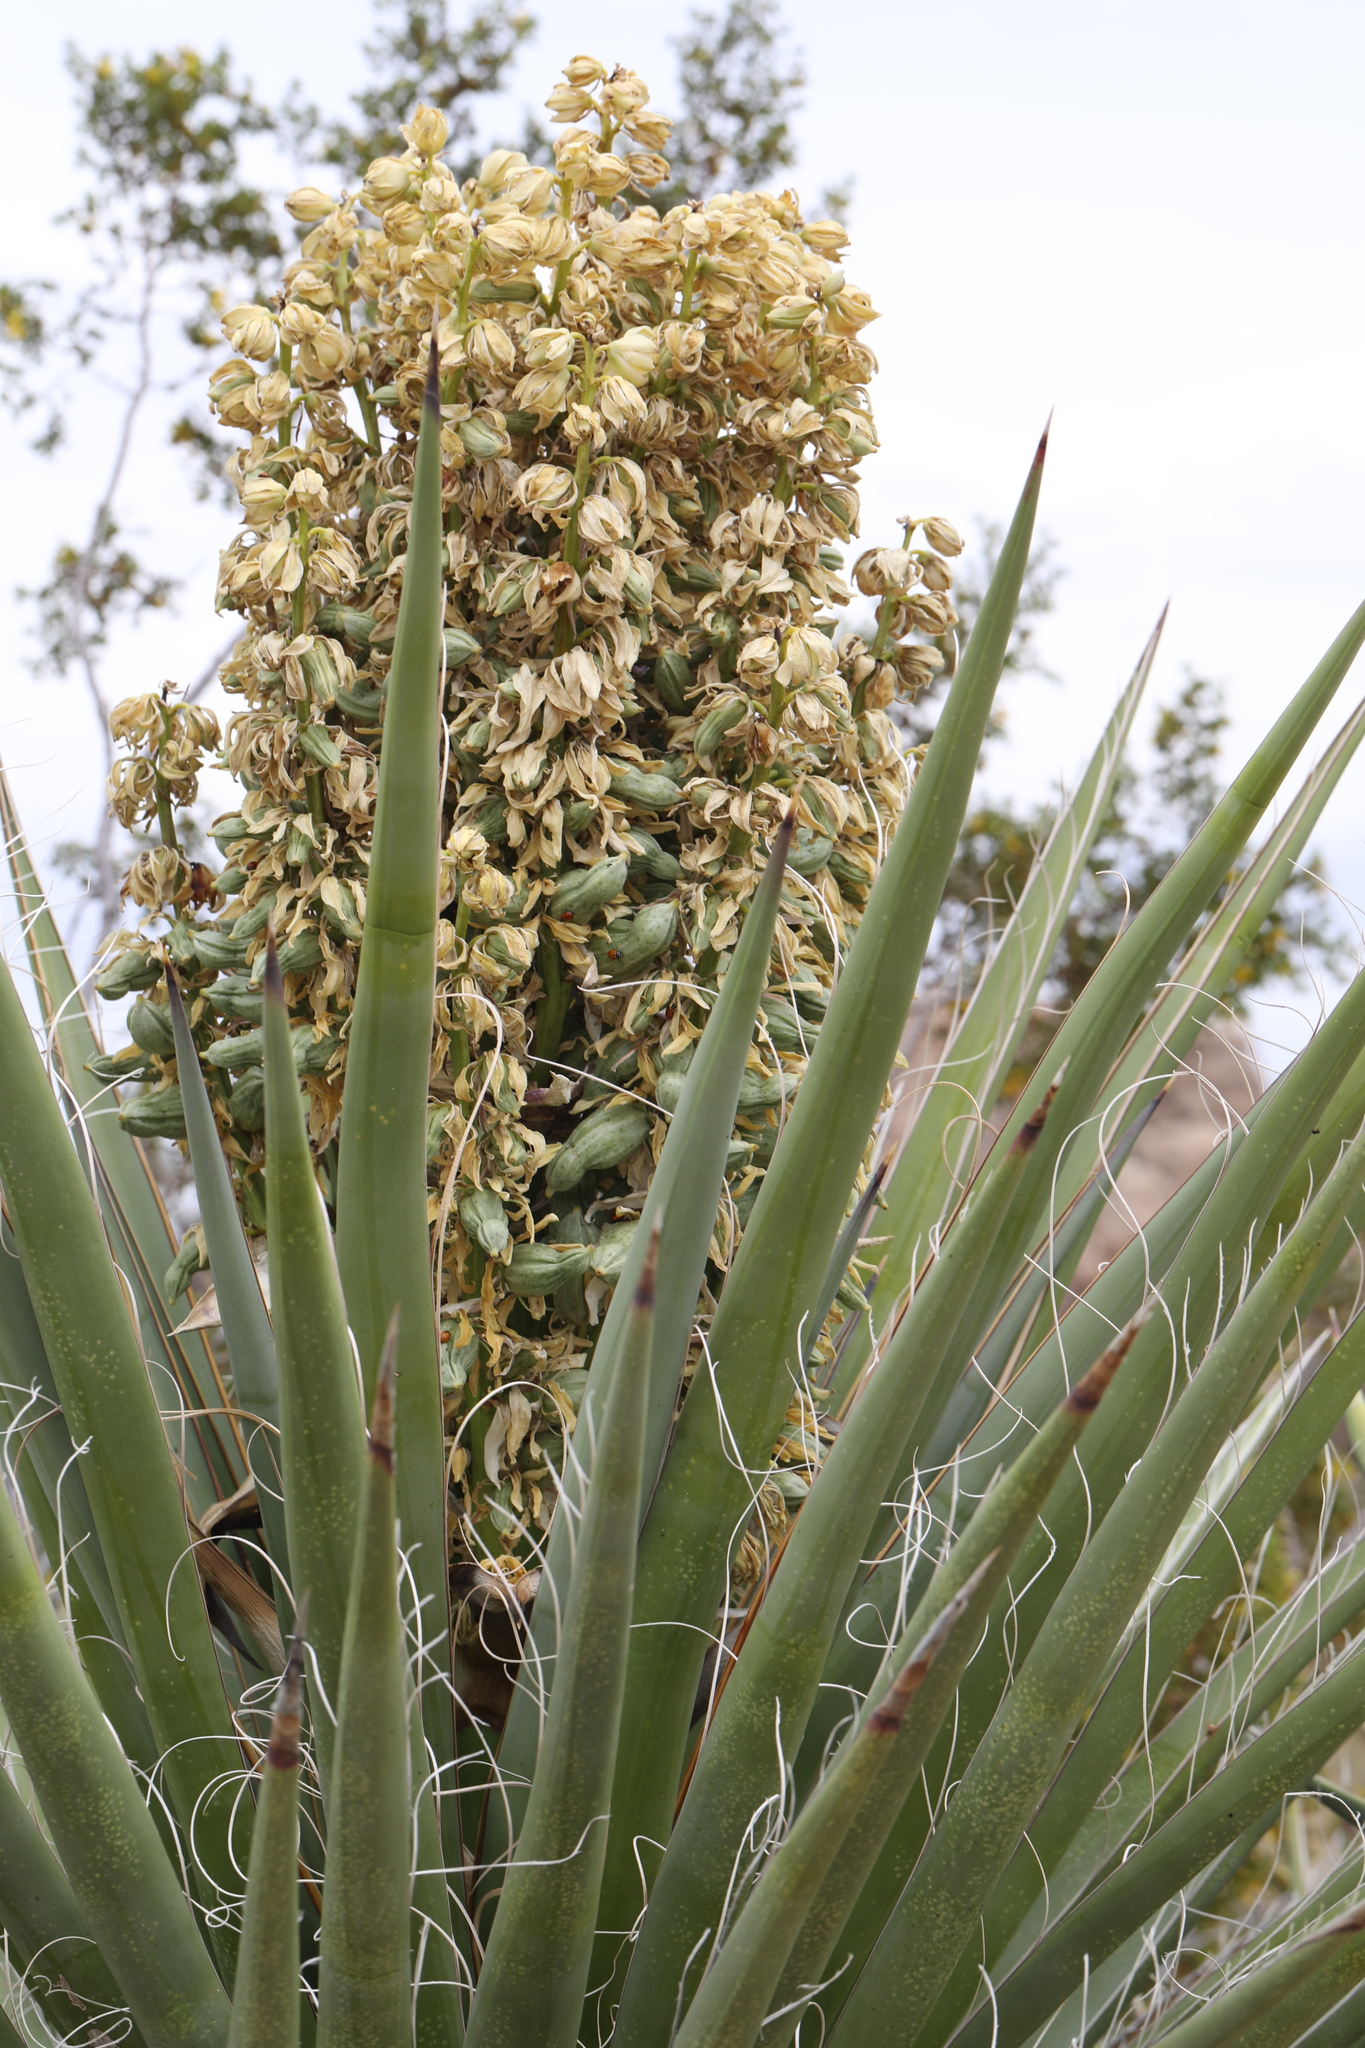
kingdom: Plantae
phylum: Tracheophyta
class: Liliopsida
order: Asparagales
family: Asparagaceae
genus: Yucca
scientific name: Yucca schidigera
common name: Mojave yucca
